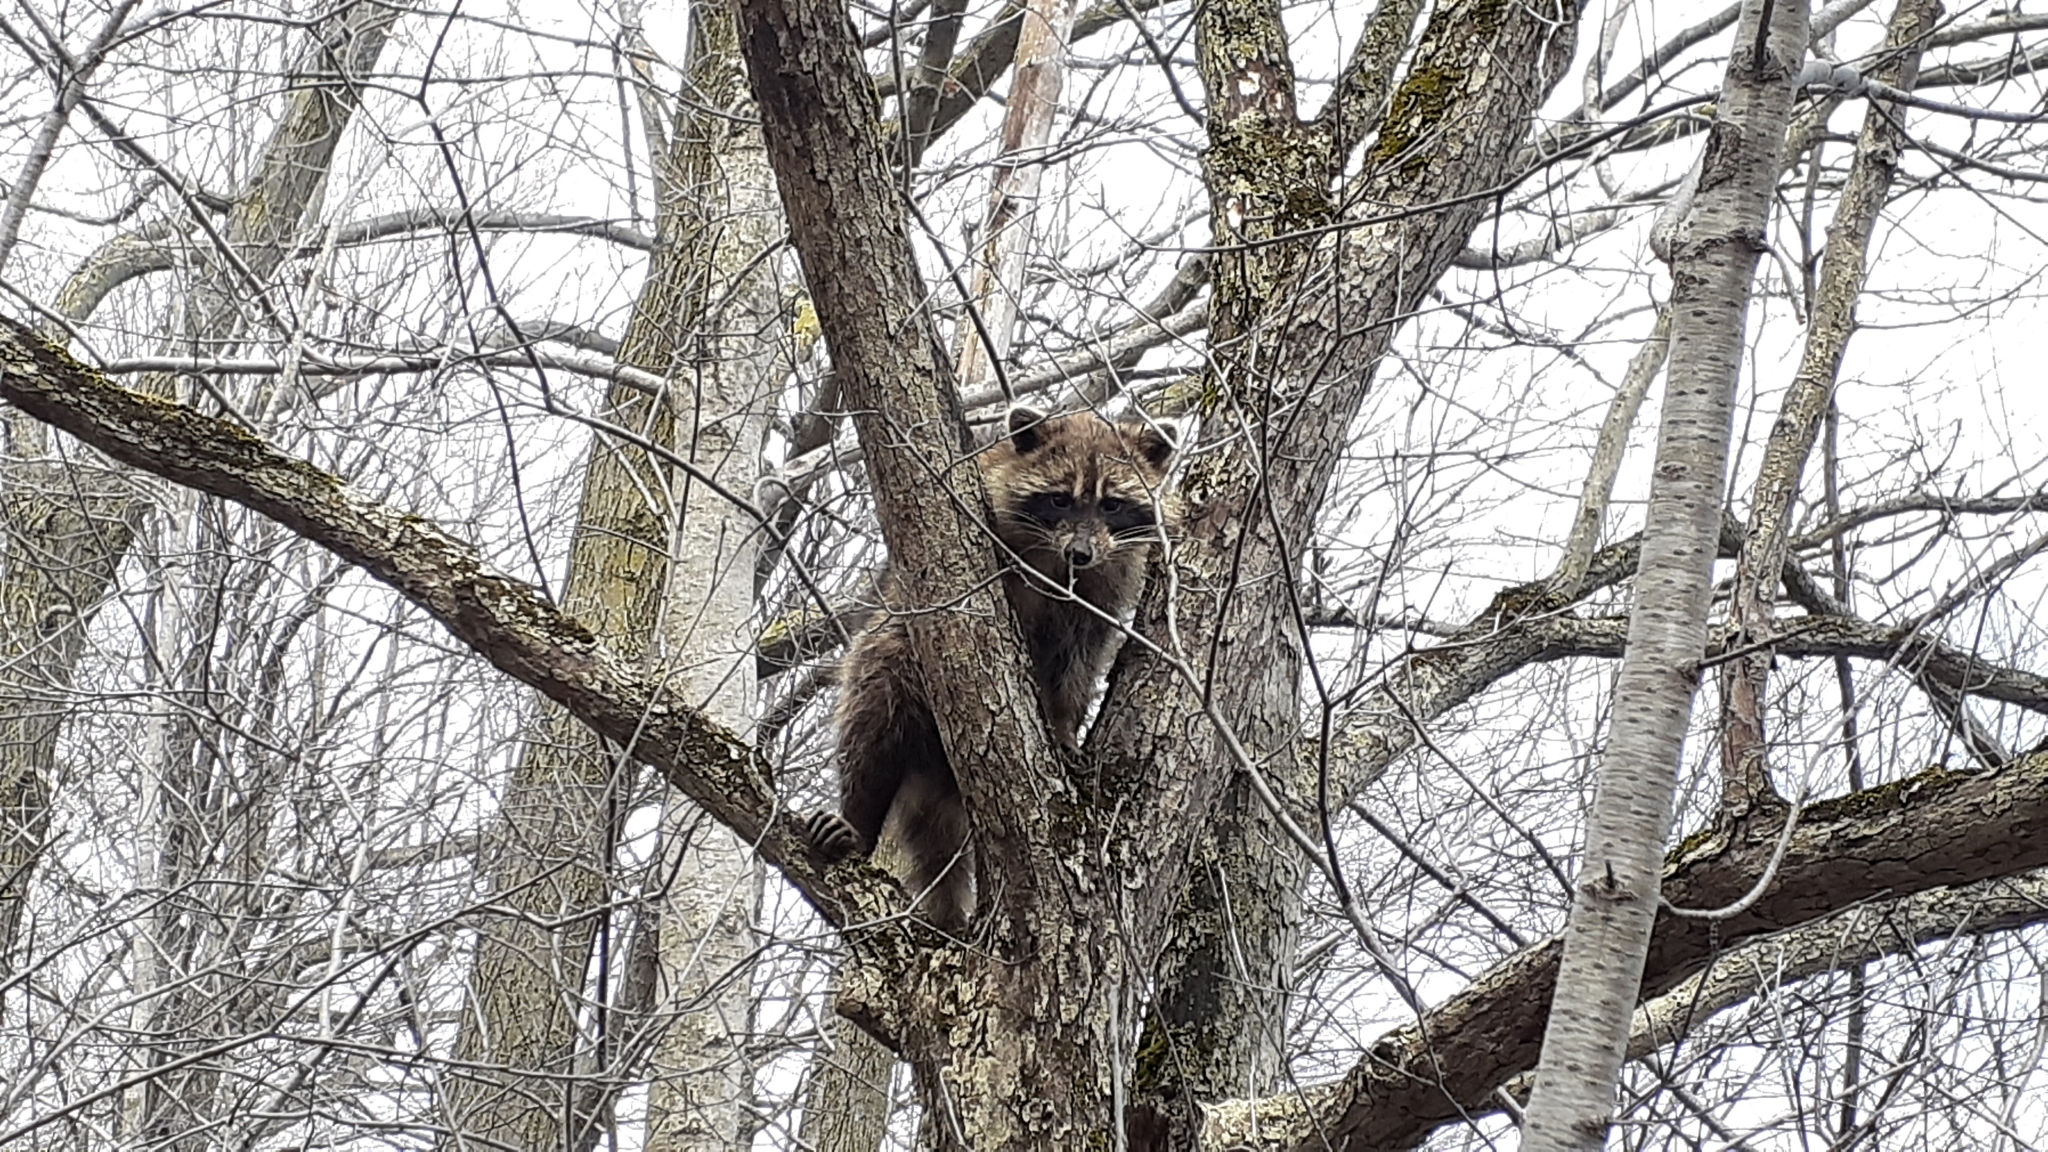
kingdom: Animalia
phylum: Chordata
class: Mammalia
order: Carnivora
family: Procyonidae
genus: Procyon
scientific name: Procyon lotor
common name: Raccoon
